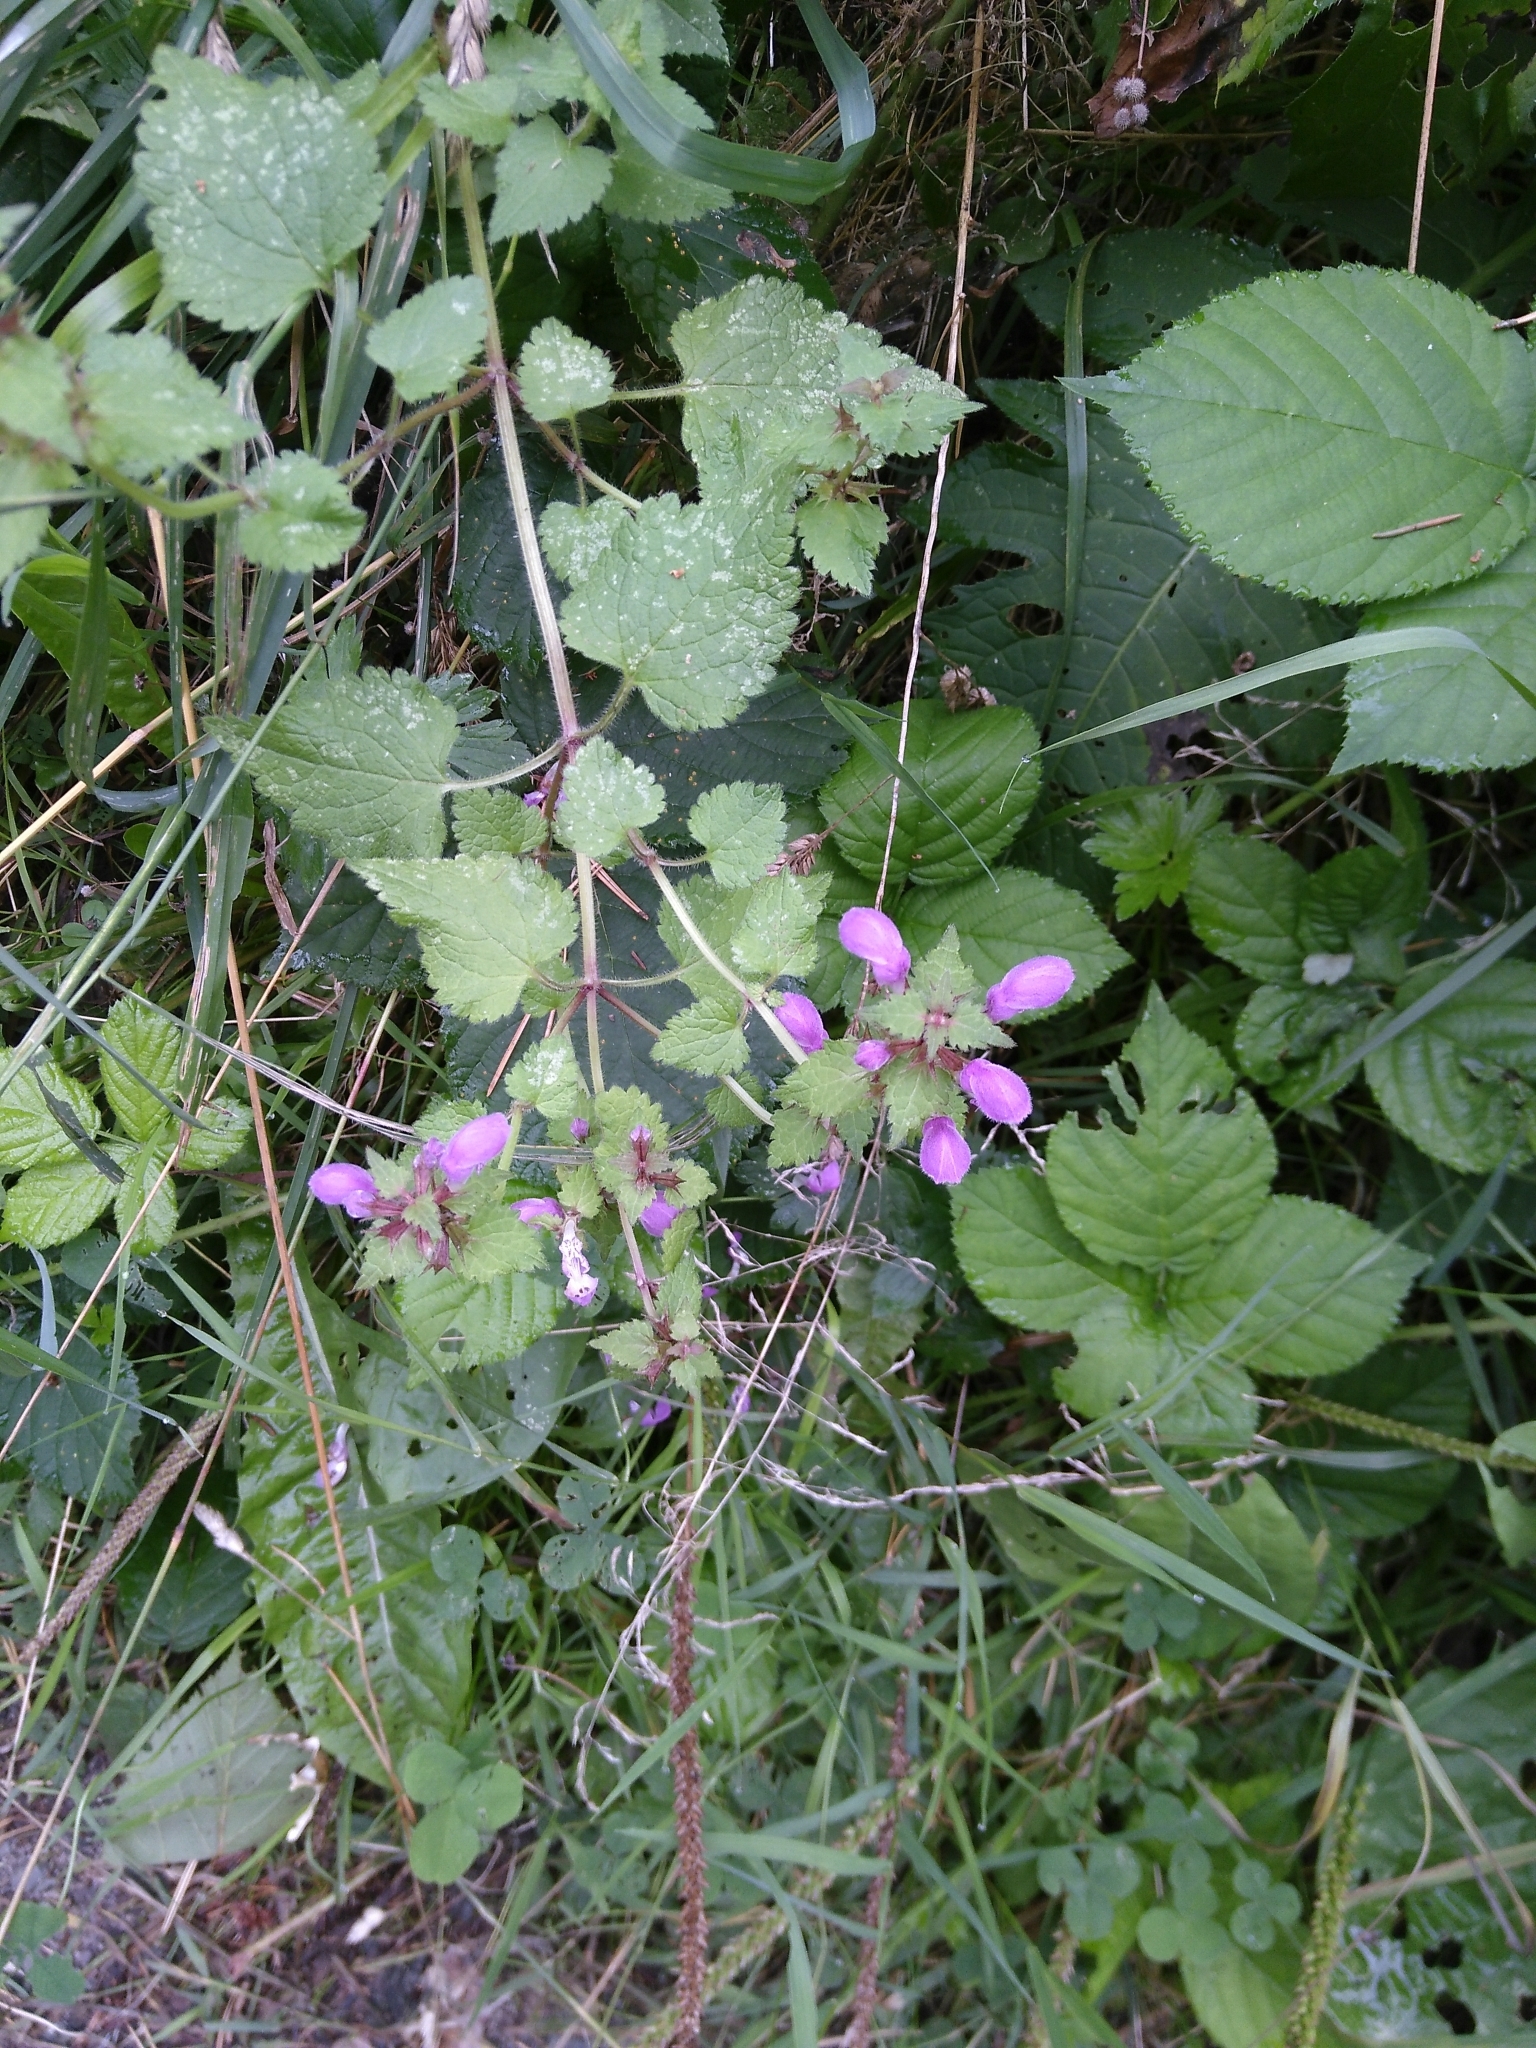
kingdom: Plantae
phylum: Tracheophyta
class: Magnoliopsida
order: Lamiales
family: Lamiaceae
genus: Lamium
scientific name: Lamium maculatum
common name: Spotted dead-nettle
